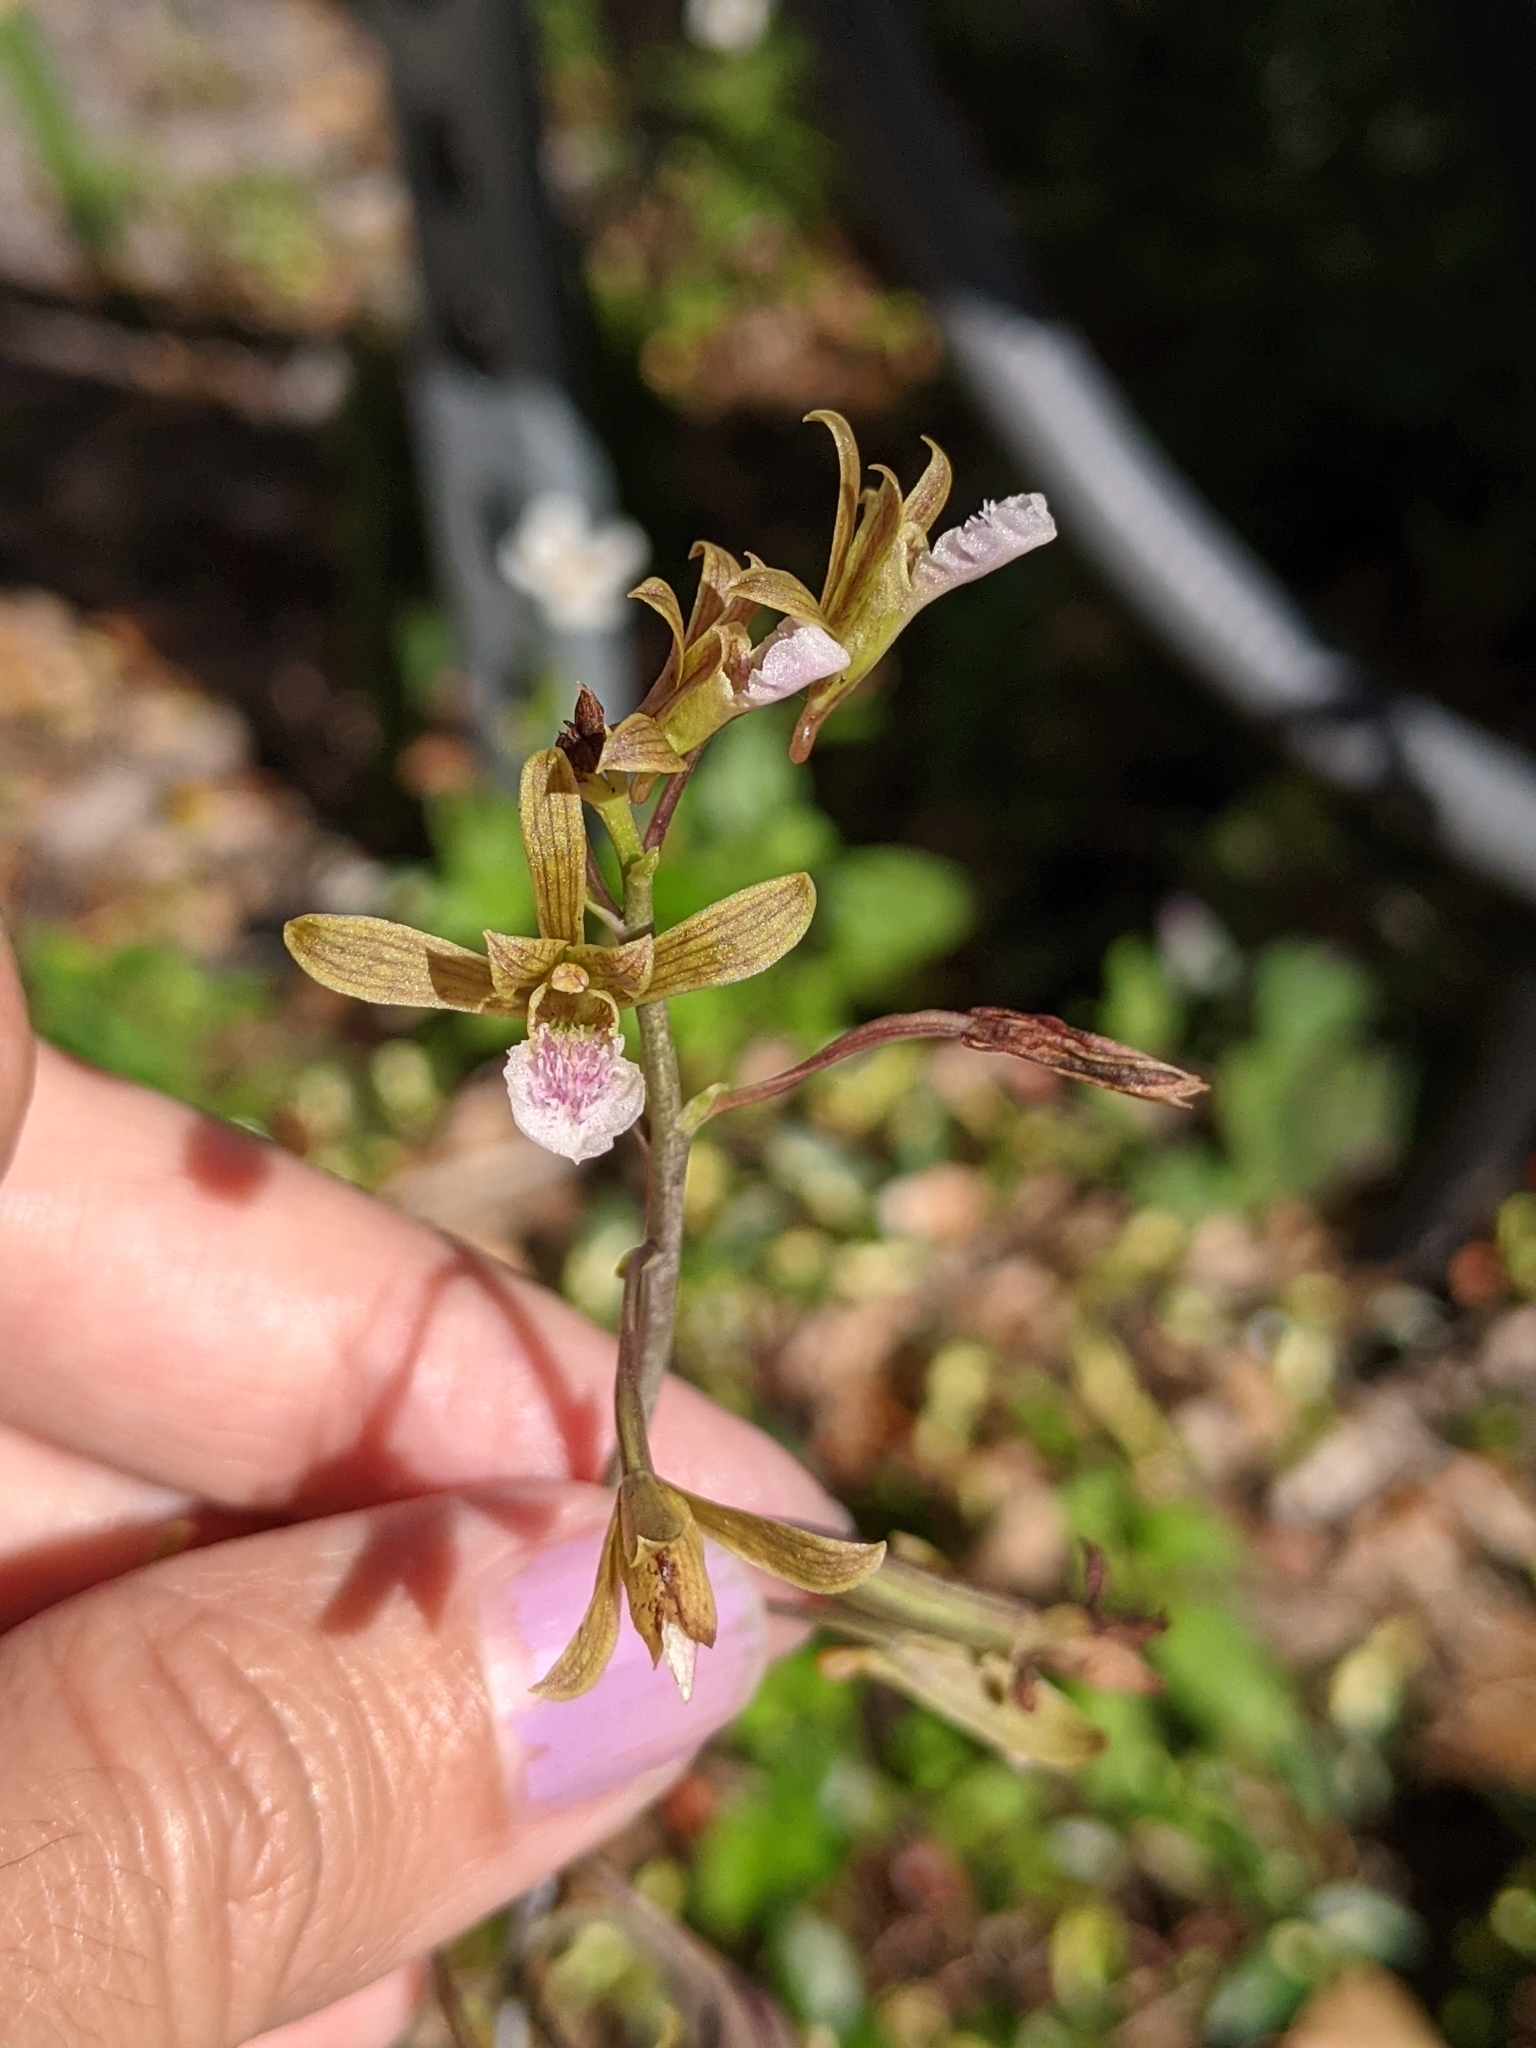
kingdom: Plantae
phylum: Tracheophyta
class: Liliopsida
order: Asparagales
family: Orchidaceae
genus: Eulophia
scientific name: Eulophia graminea
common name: Orchid
